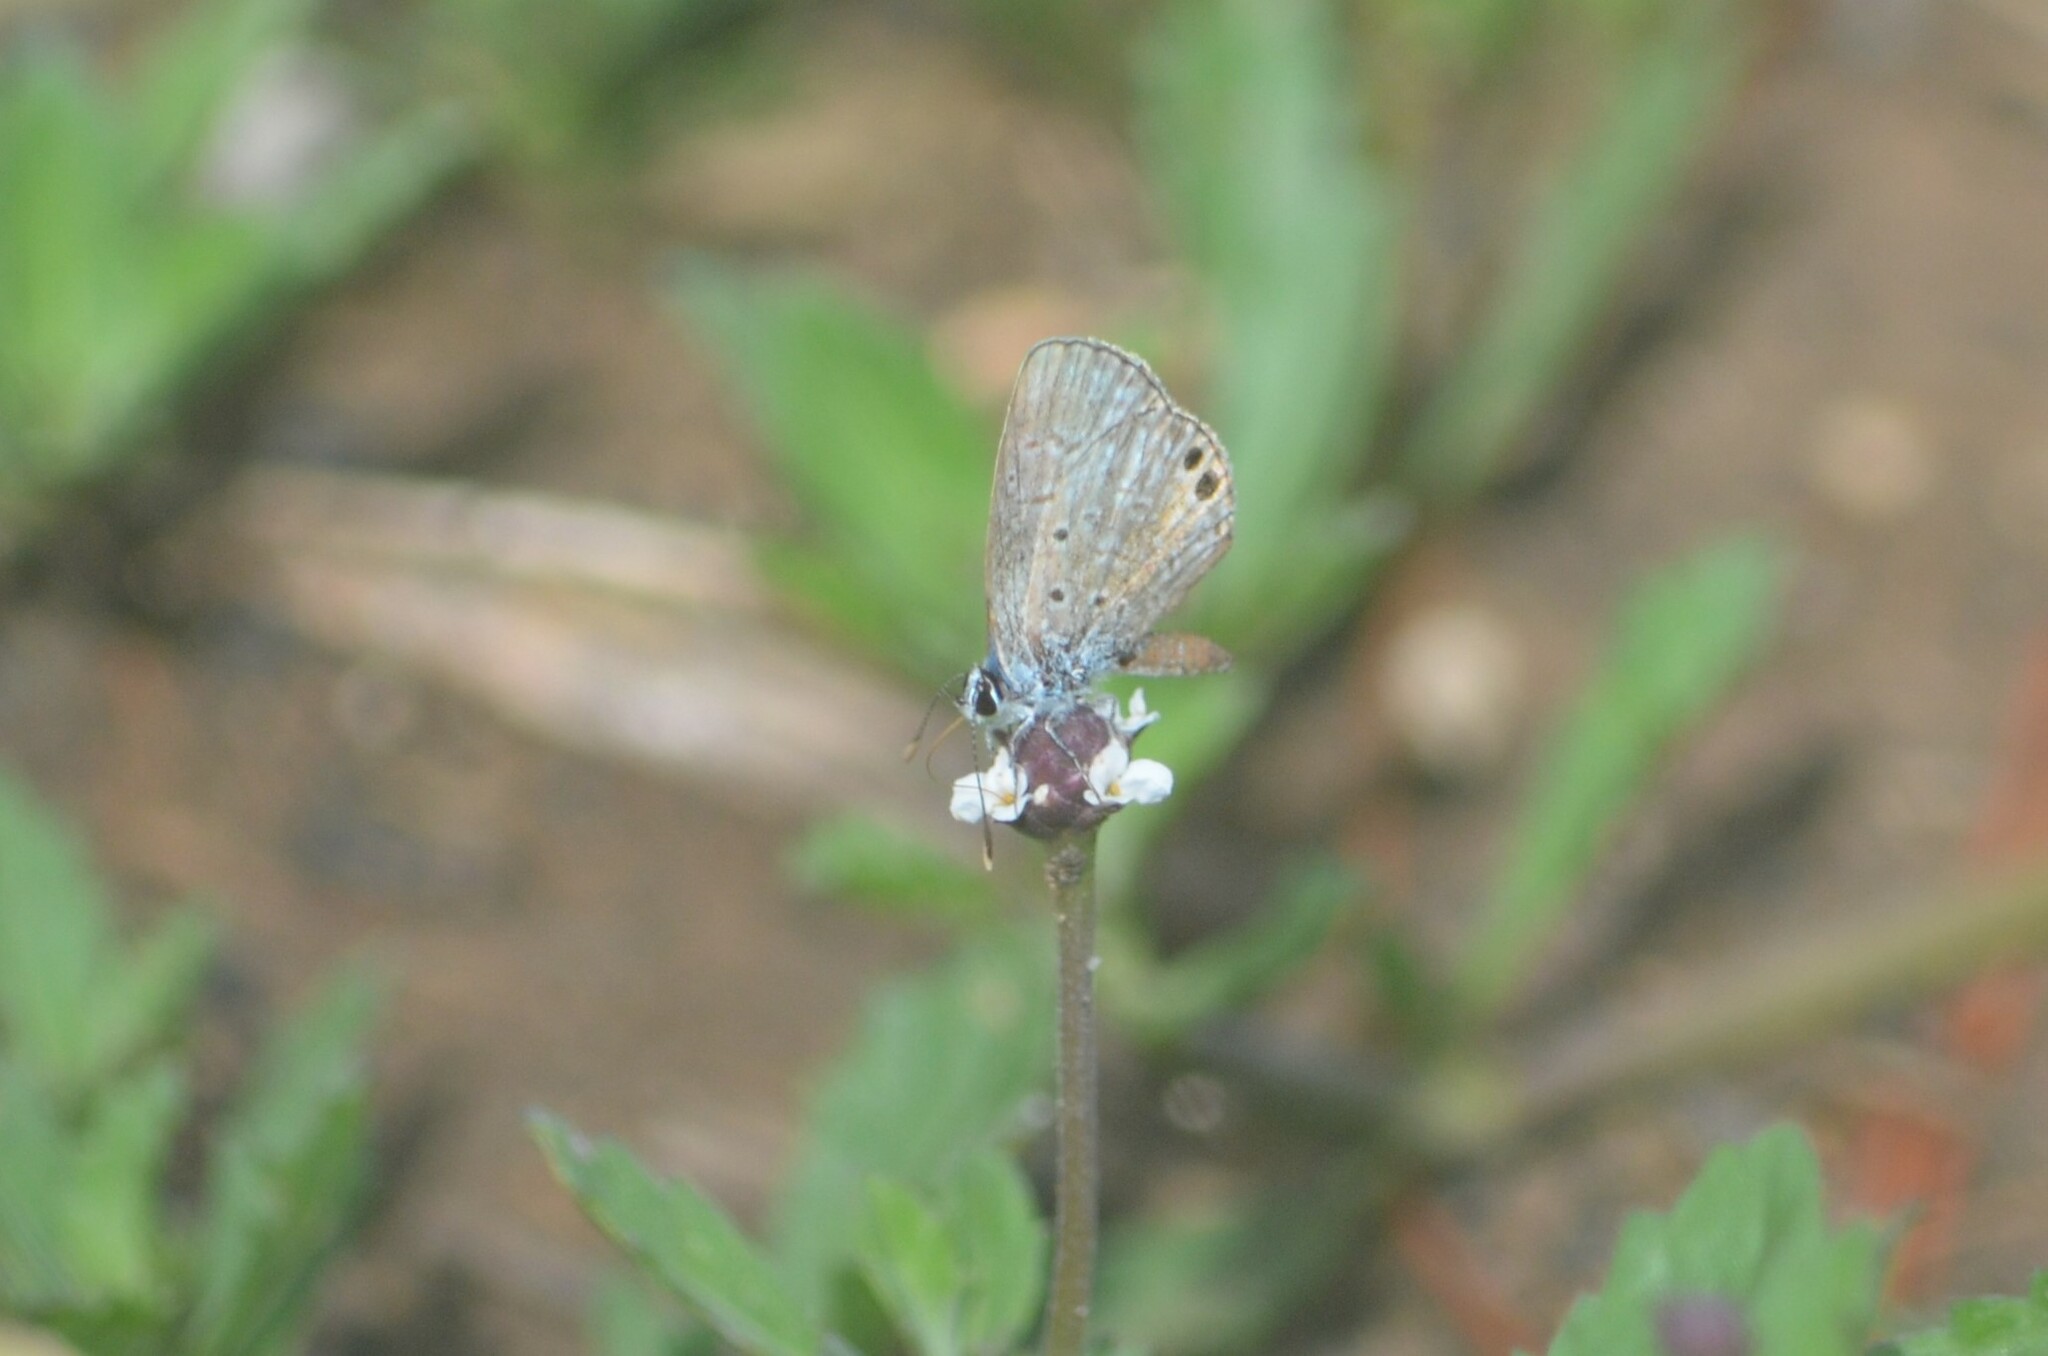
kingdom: Animalia
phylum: Arthropoda
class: Insecta
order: Lepidoptera
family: Lycaenidae
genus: Hemiargus
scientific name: Hemiargus ceraunus
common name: Ceraunus blue
